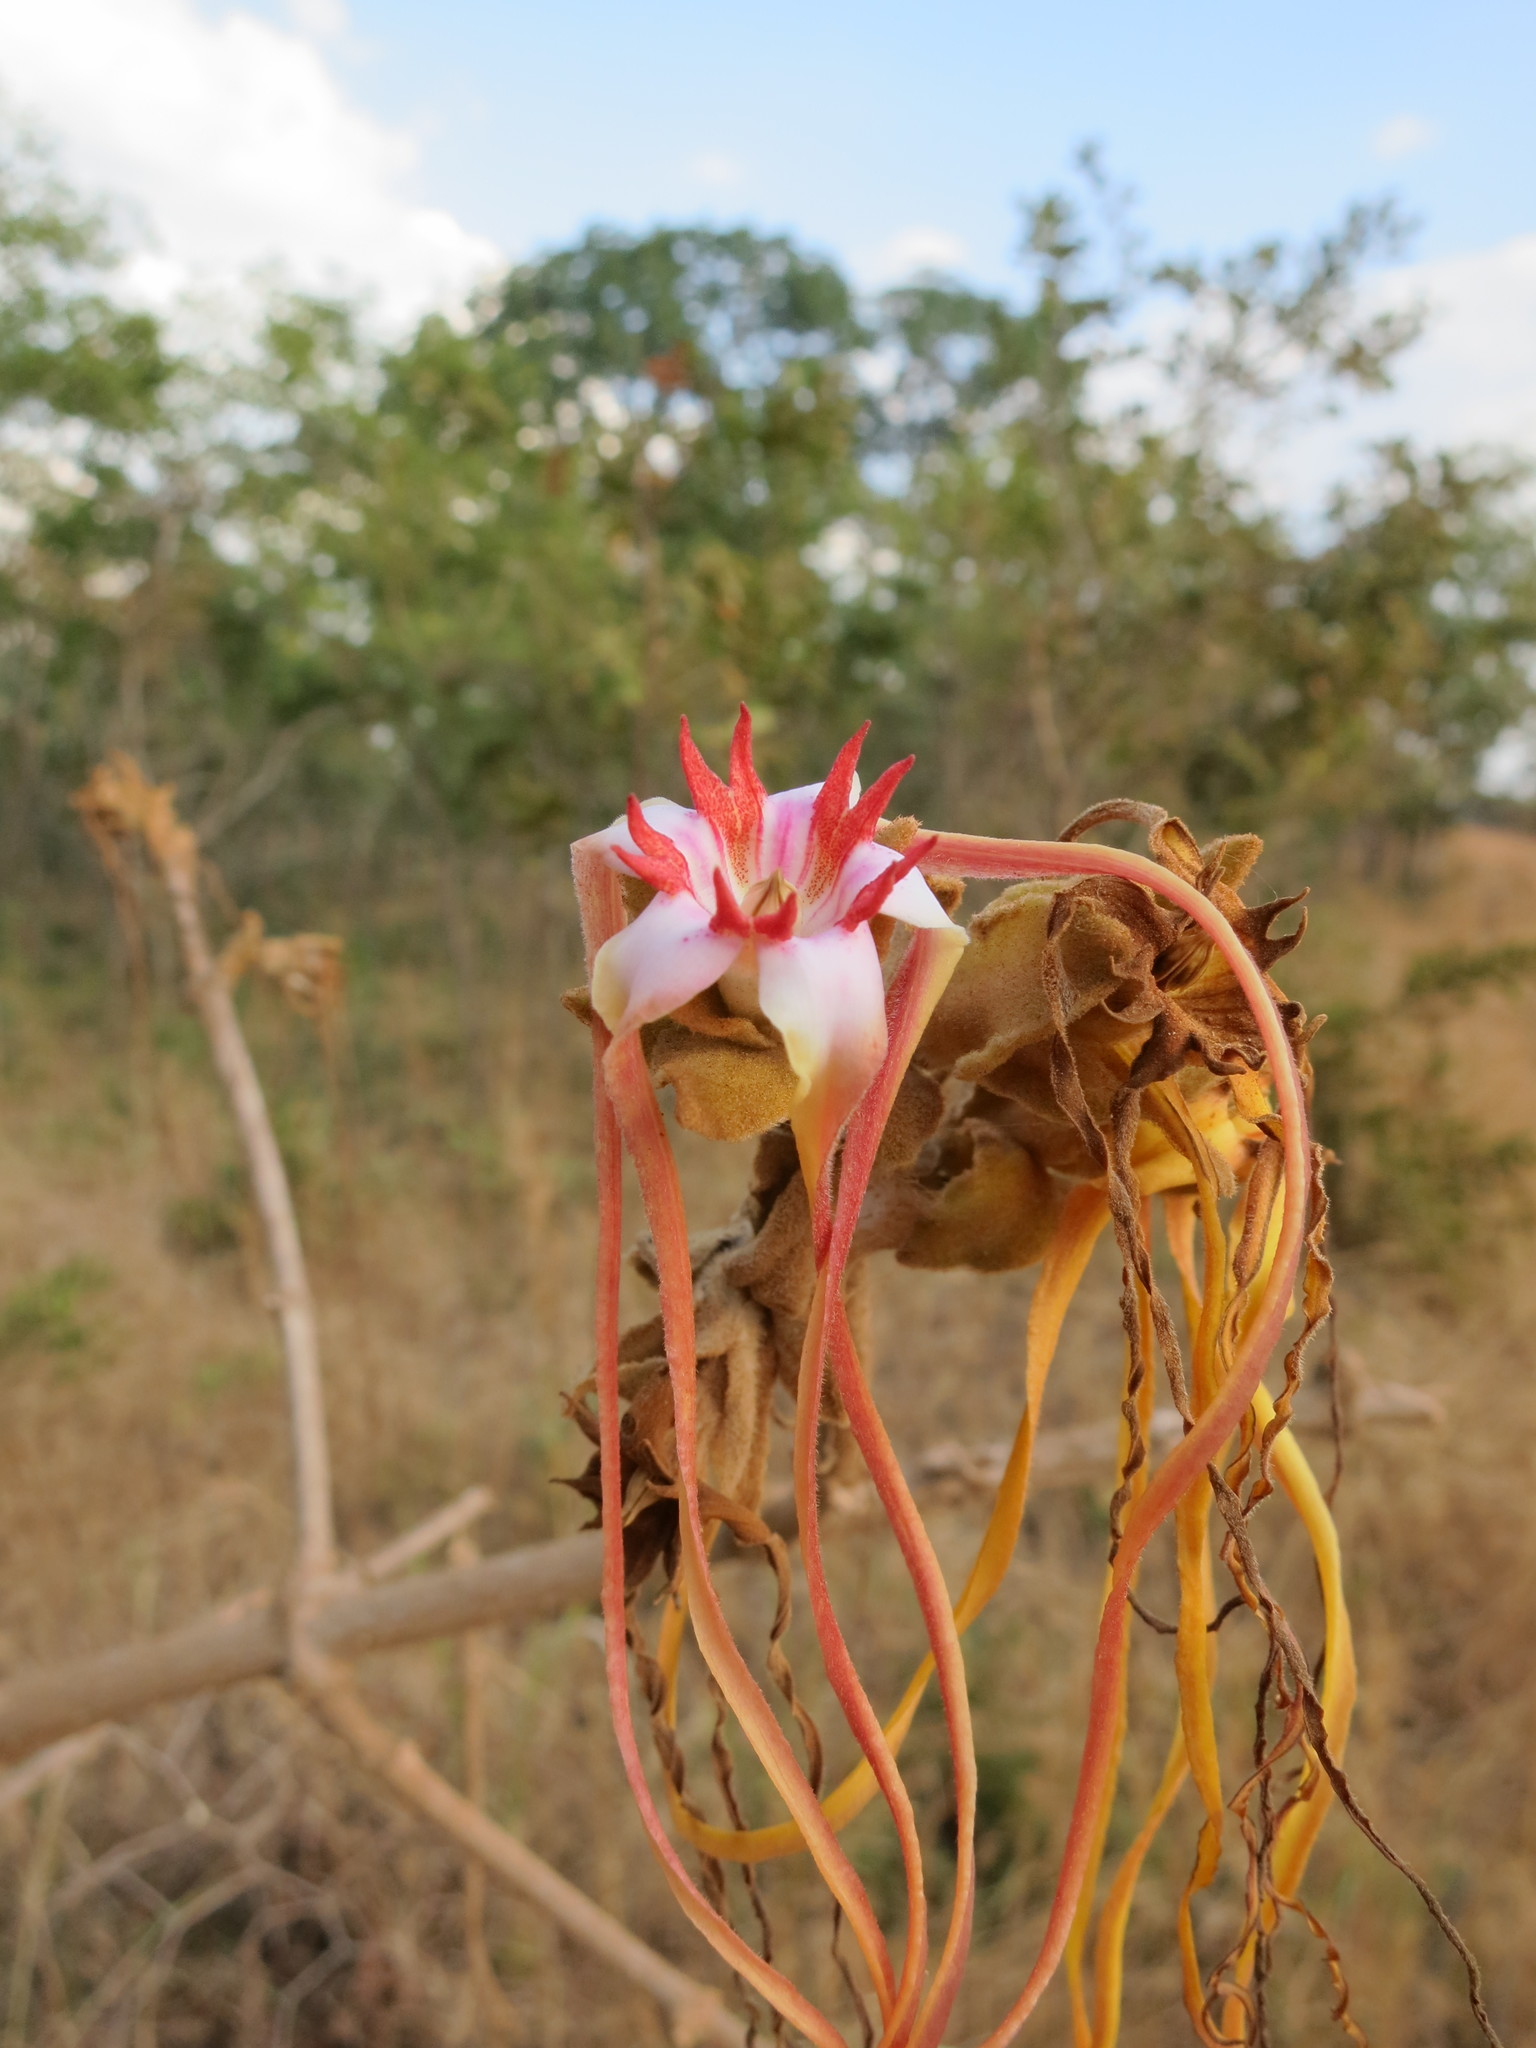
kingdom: Plantae
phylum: Tracheophyta
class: Magnoliopsida
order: Gentianales
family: Apocynaceae
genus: Strophanthus
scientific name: Strophanthus eminii
